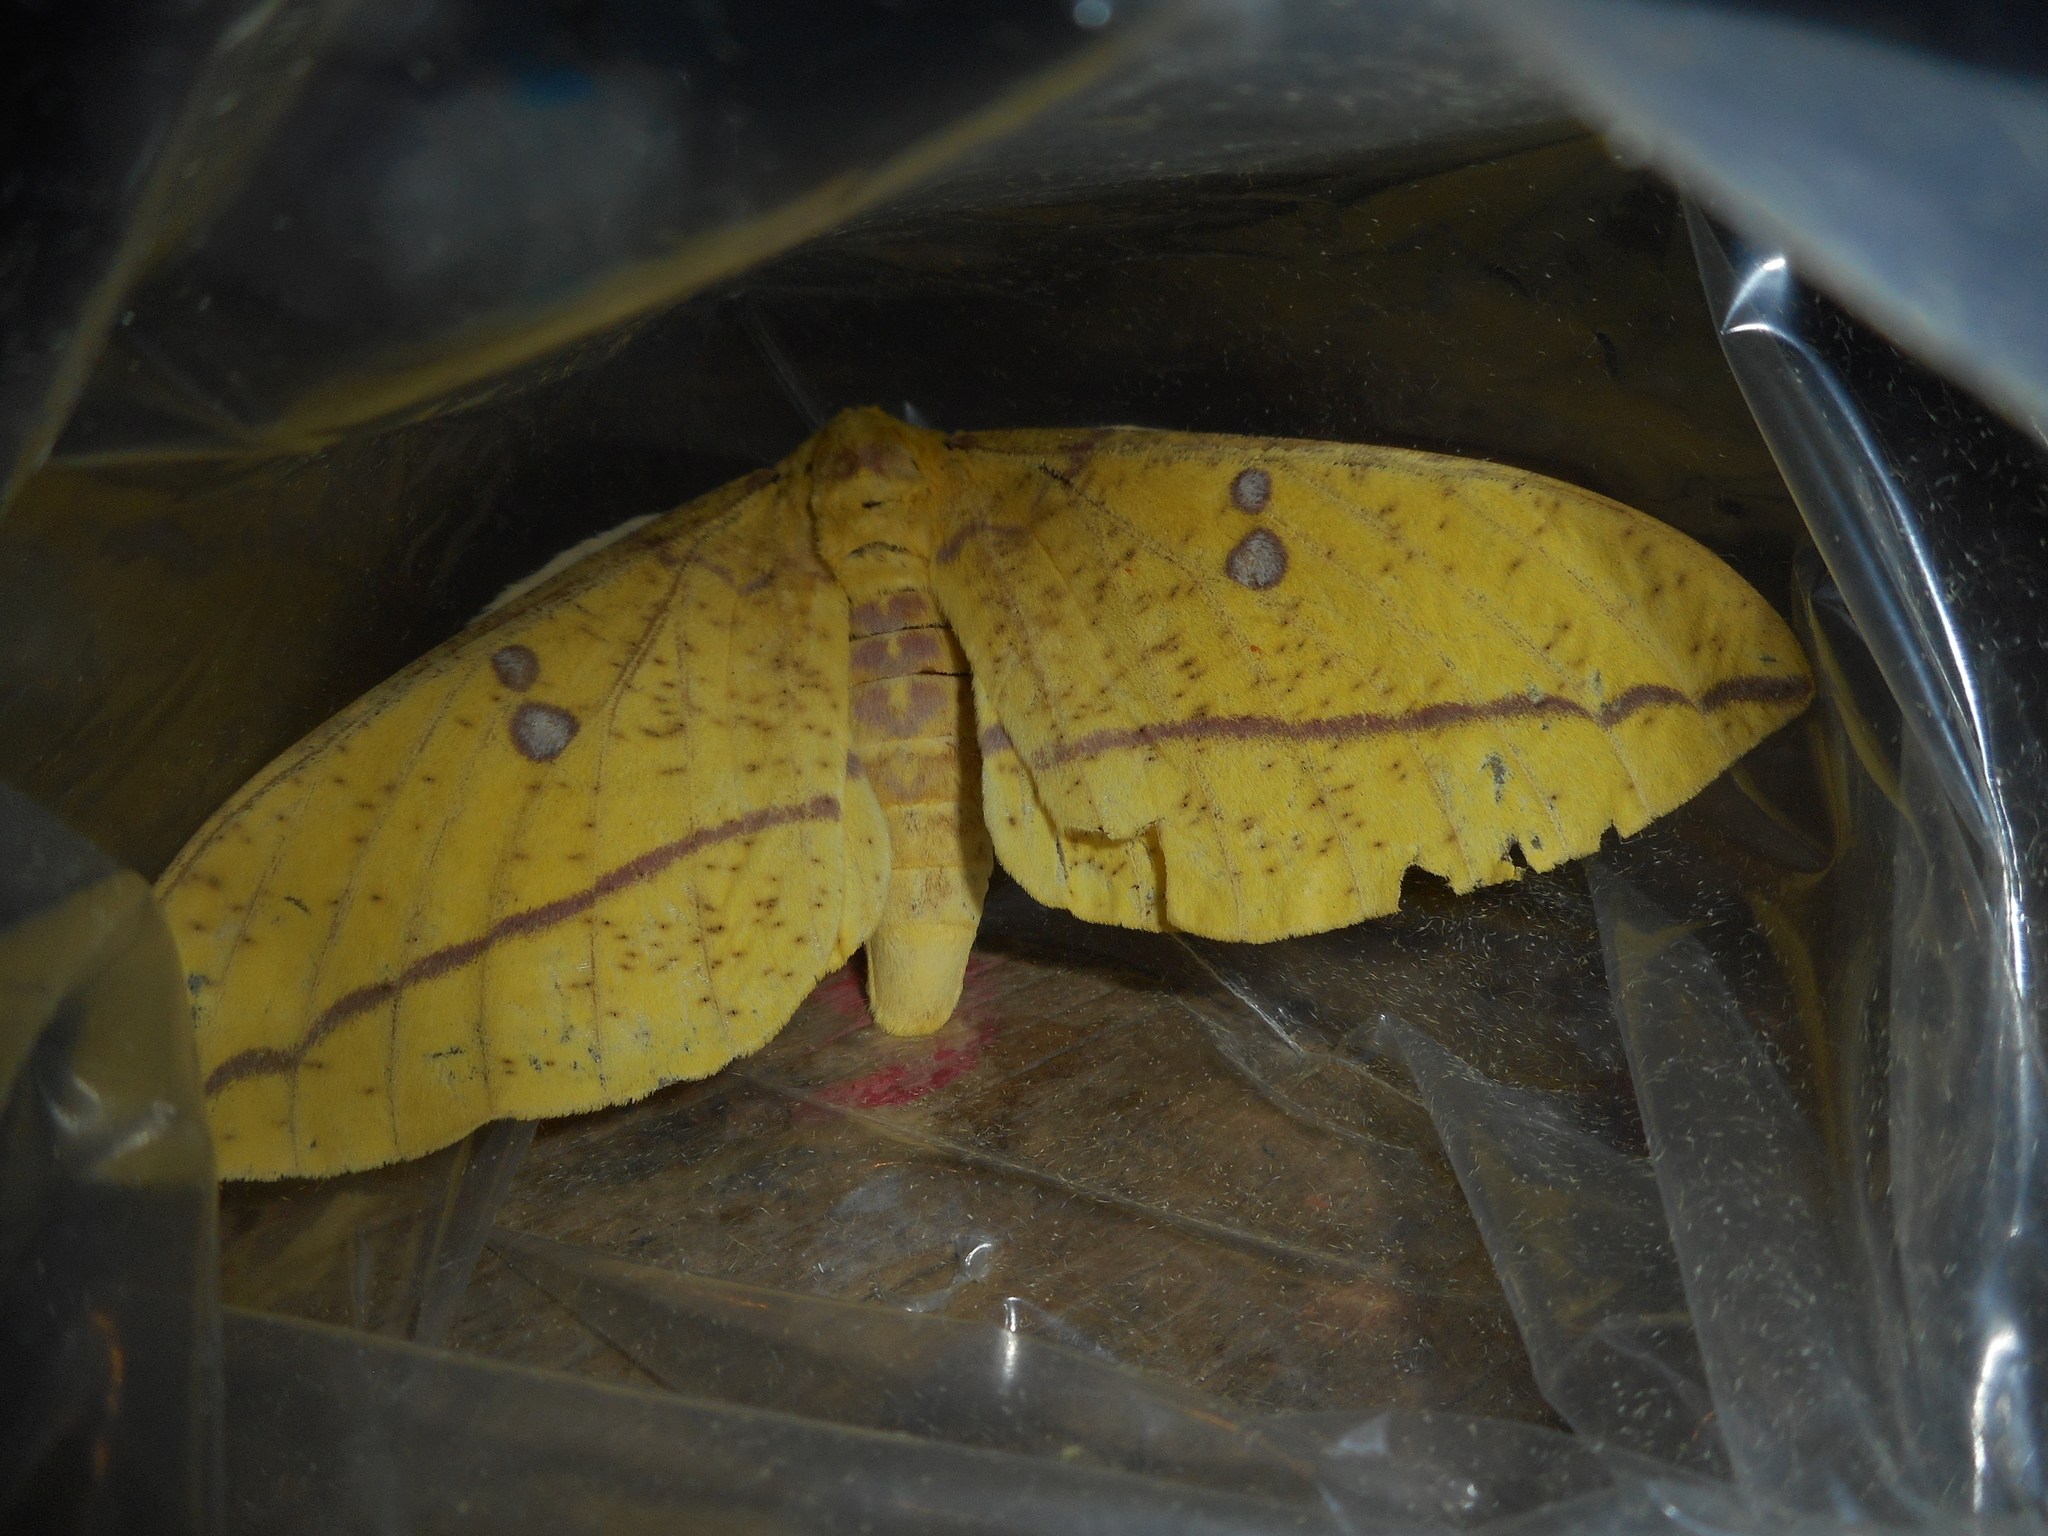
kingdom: Animalia
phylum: Arthropoda
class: Insecta
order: Lepidoptera
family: Saturniidae
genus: Eacles
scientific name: Eacles imperialis
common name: Imperial moth
